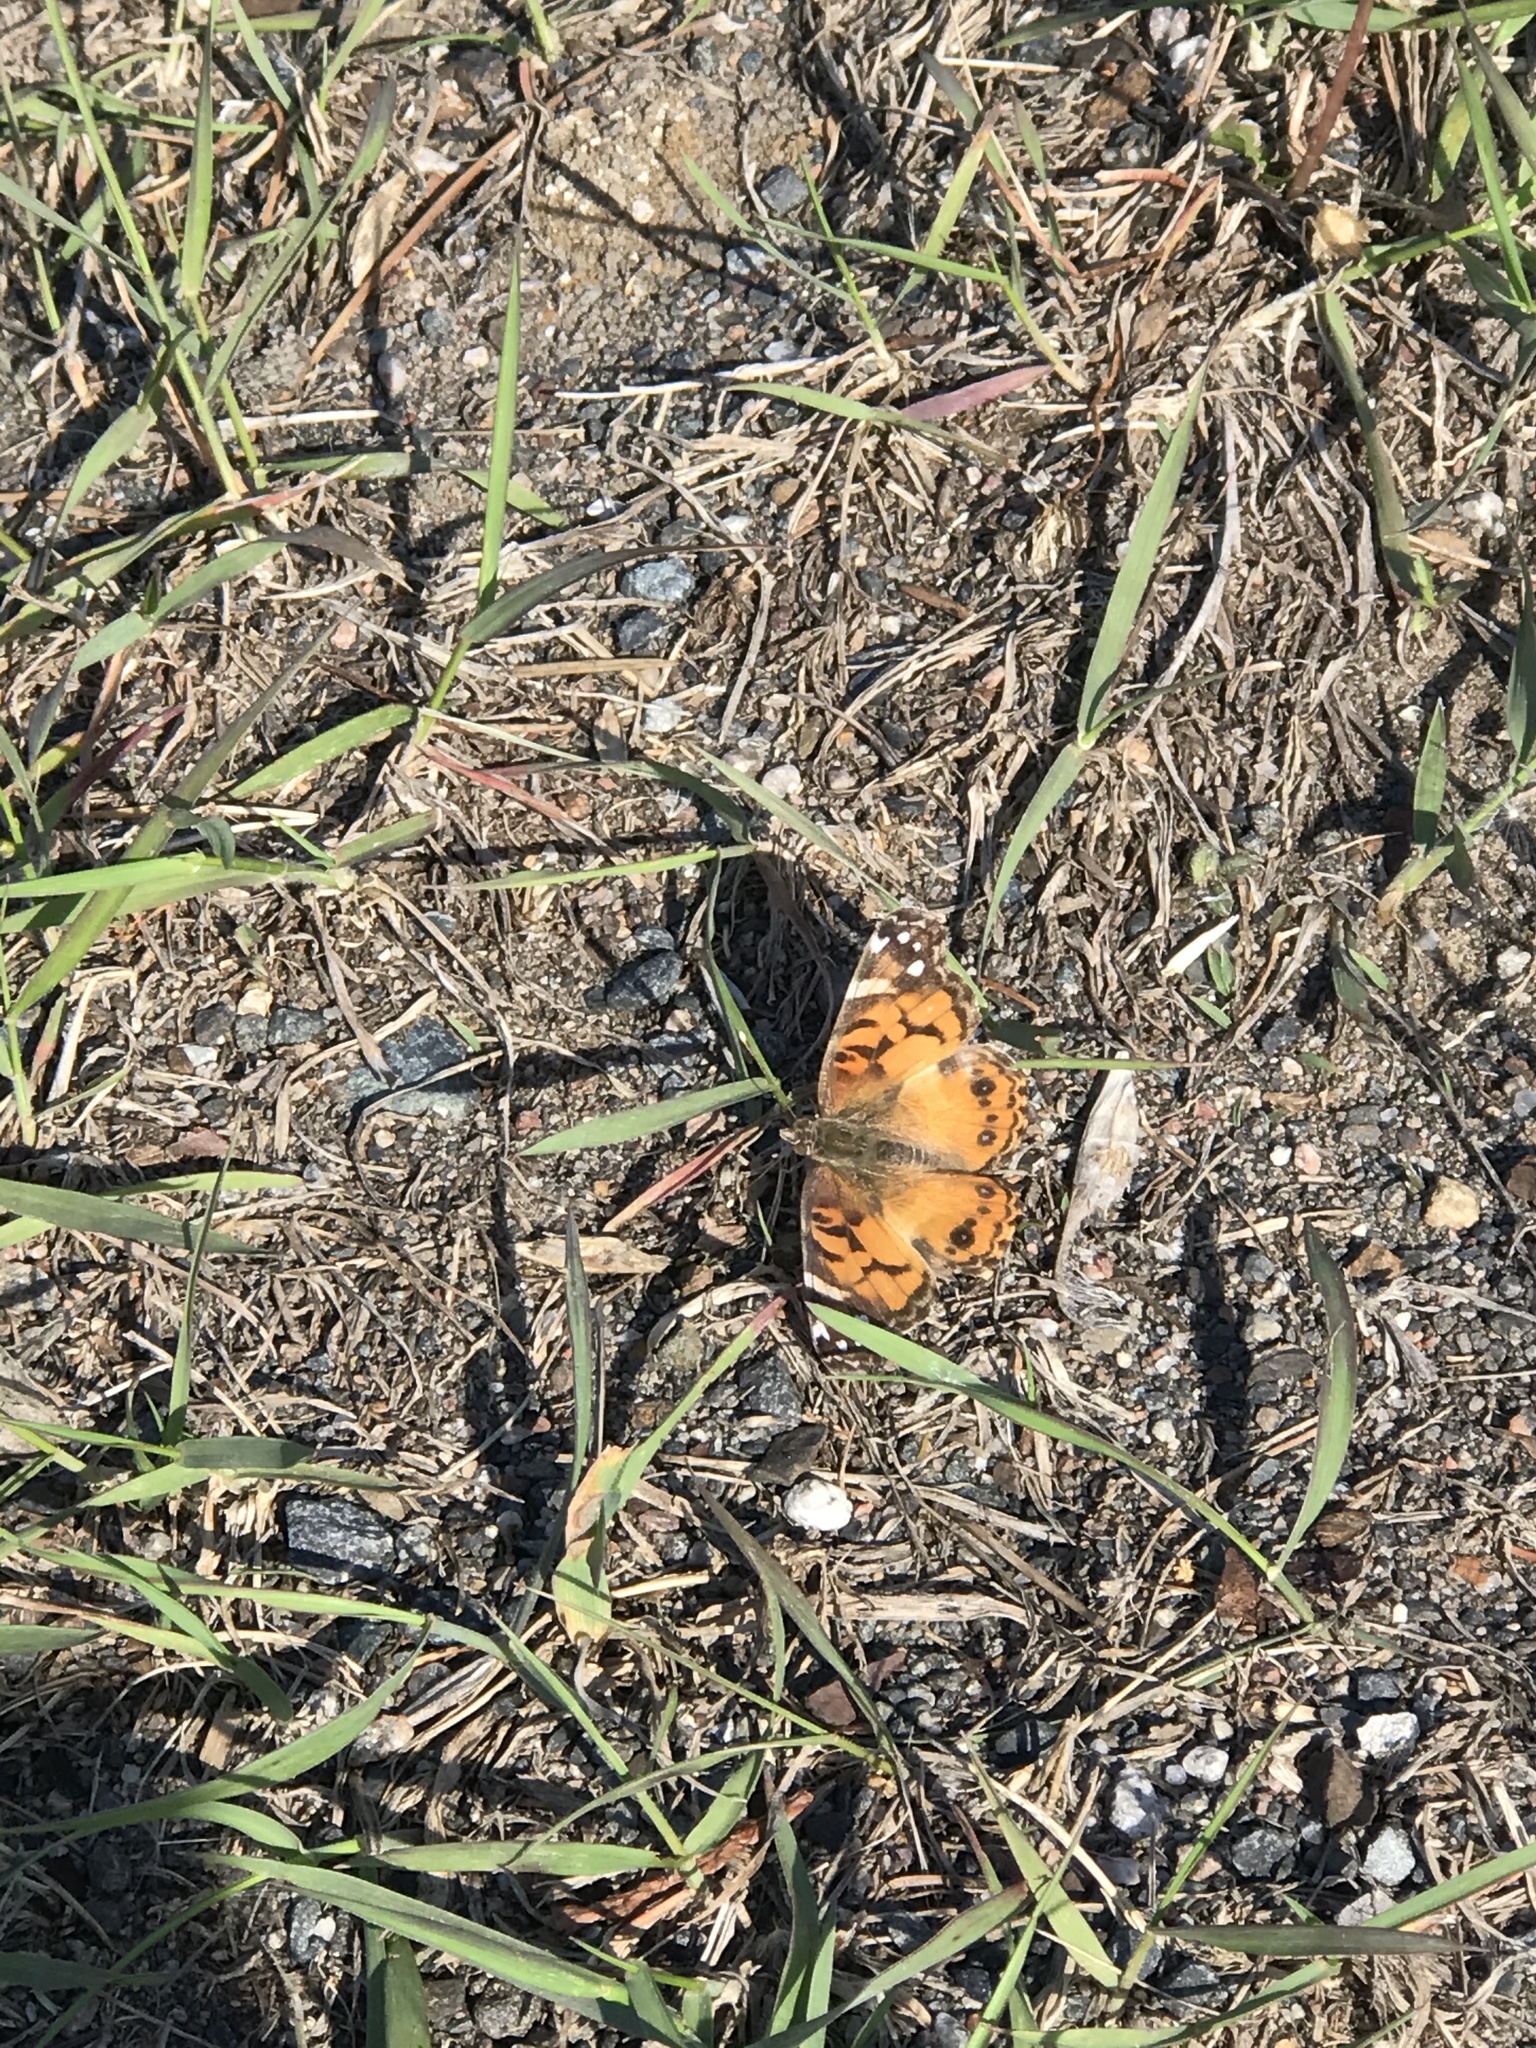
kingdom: Animalia
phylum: Arthropoda
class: Insecta
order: Lepidoptera
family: Nymphalidae
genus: Vanessa
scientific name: Vanessa virginiensis
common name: American lady
